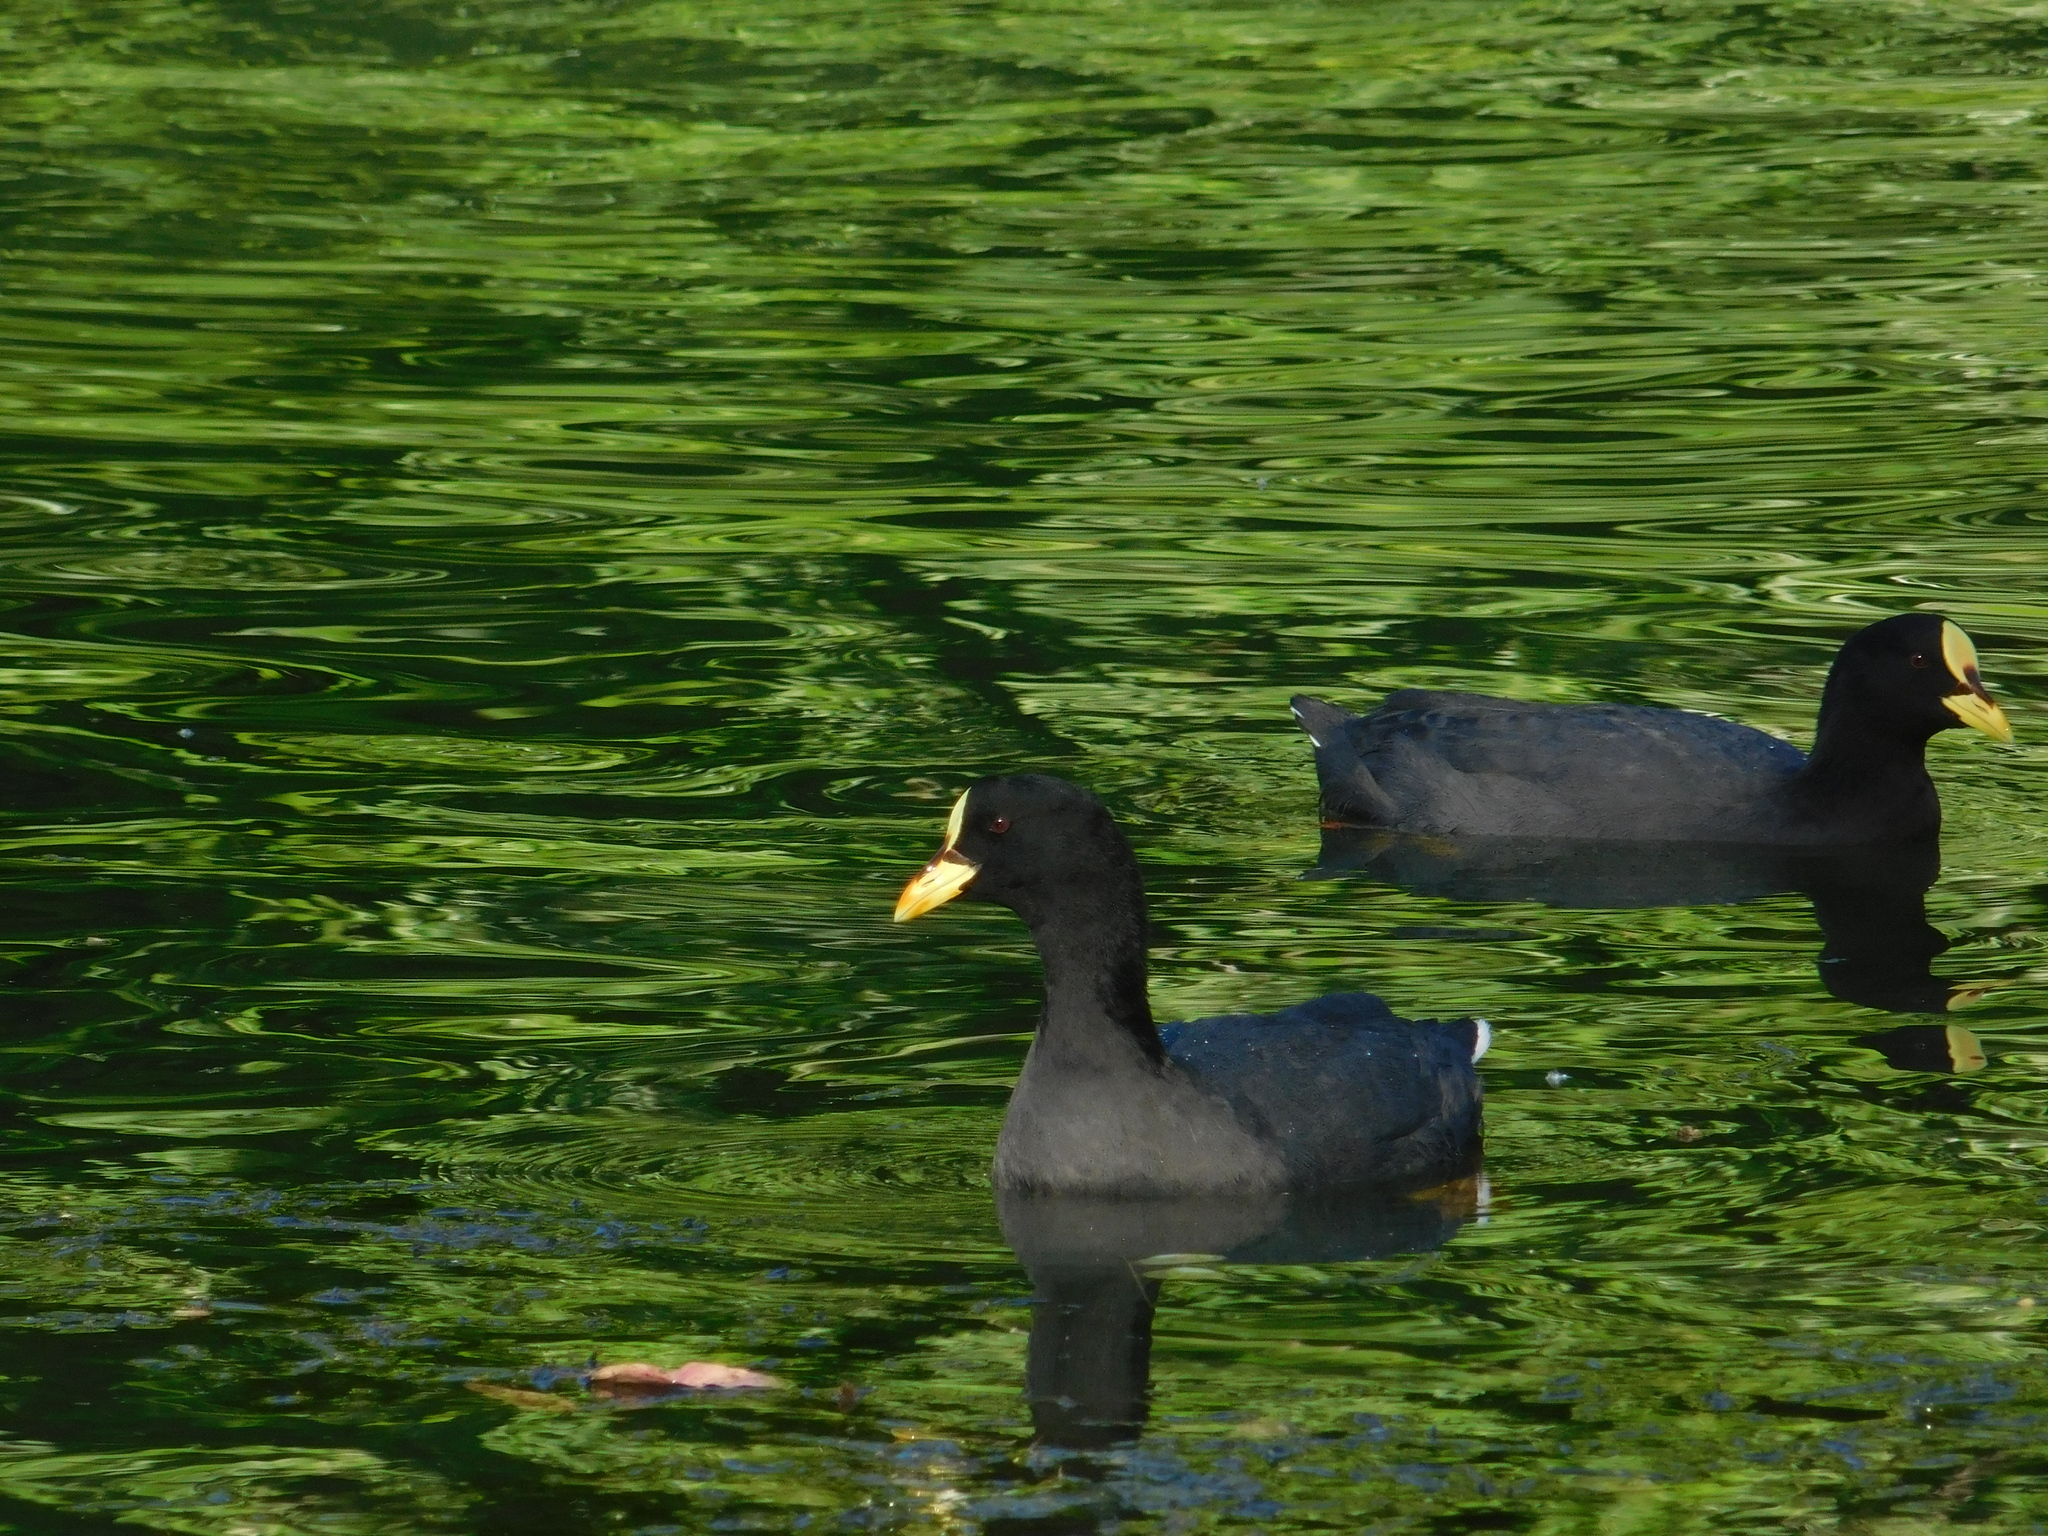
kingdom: Animalia
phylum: Chordata
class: Aves
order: Gruiformes
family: Rallidae
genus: Fulica
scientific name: Fulica armillata
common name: Red-gartered coot
